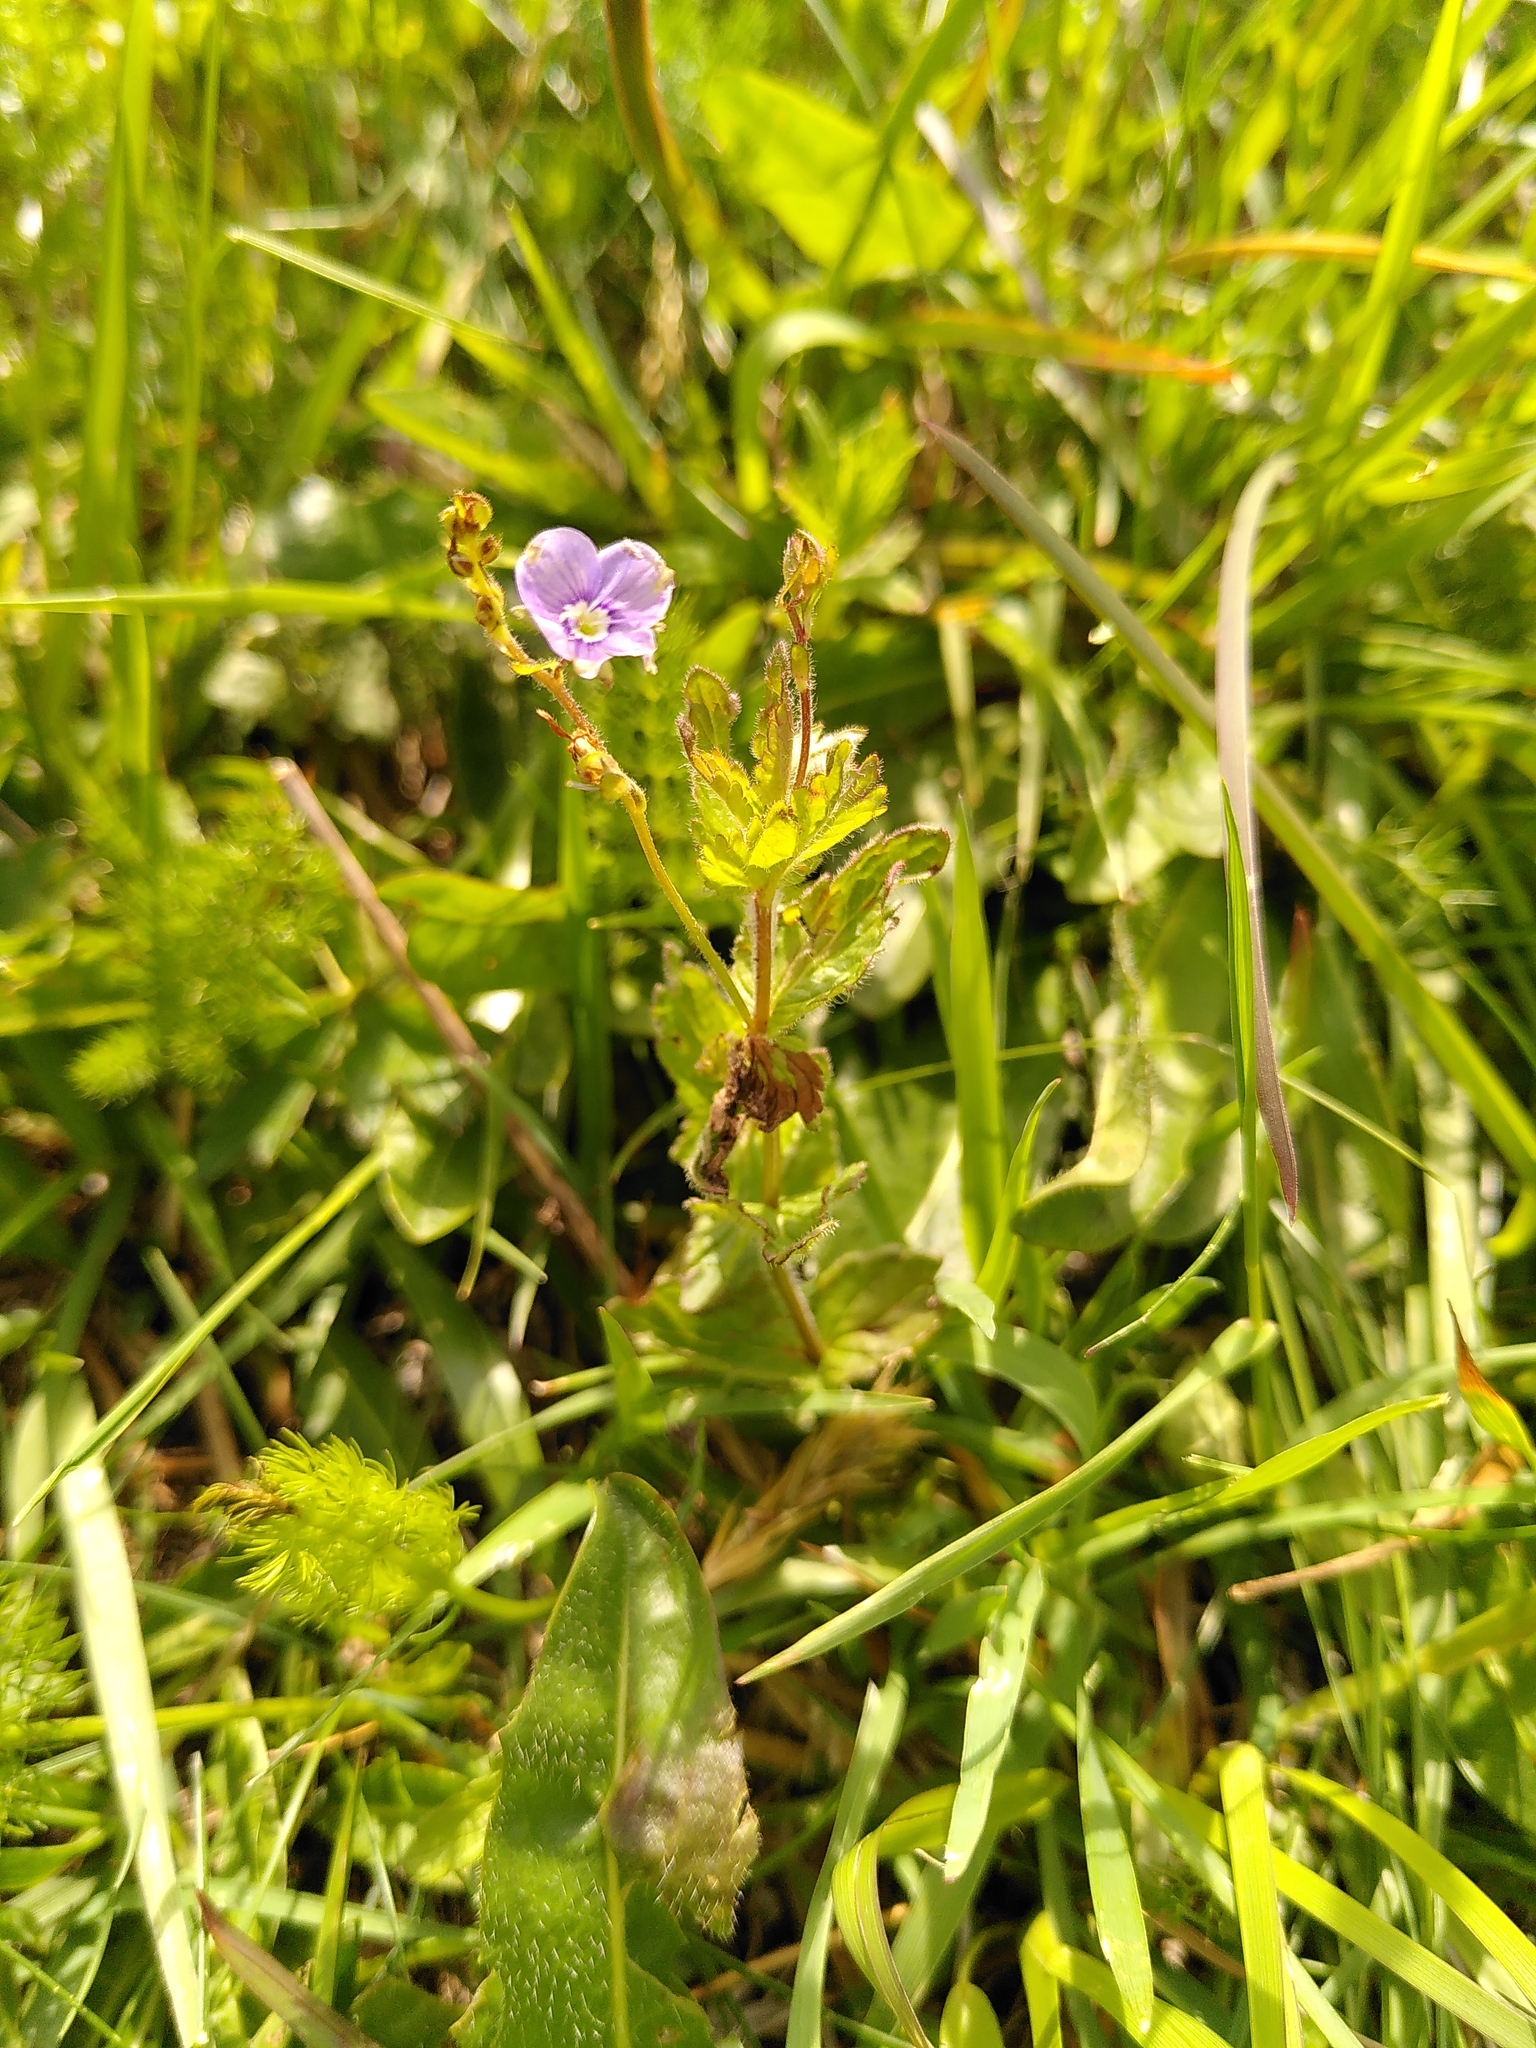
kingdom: Plantae
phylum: Tracheophyta
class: Magnoliopsida
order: Lamiales
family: Plantaginaceae
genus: Veronica
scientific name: Veronica chamaedrys
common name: Germander speedwell
